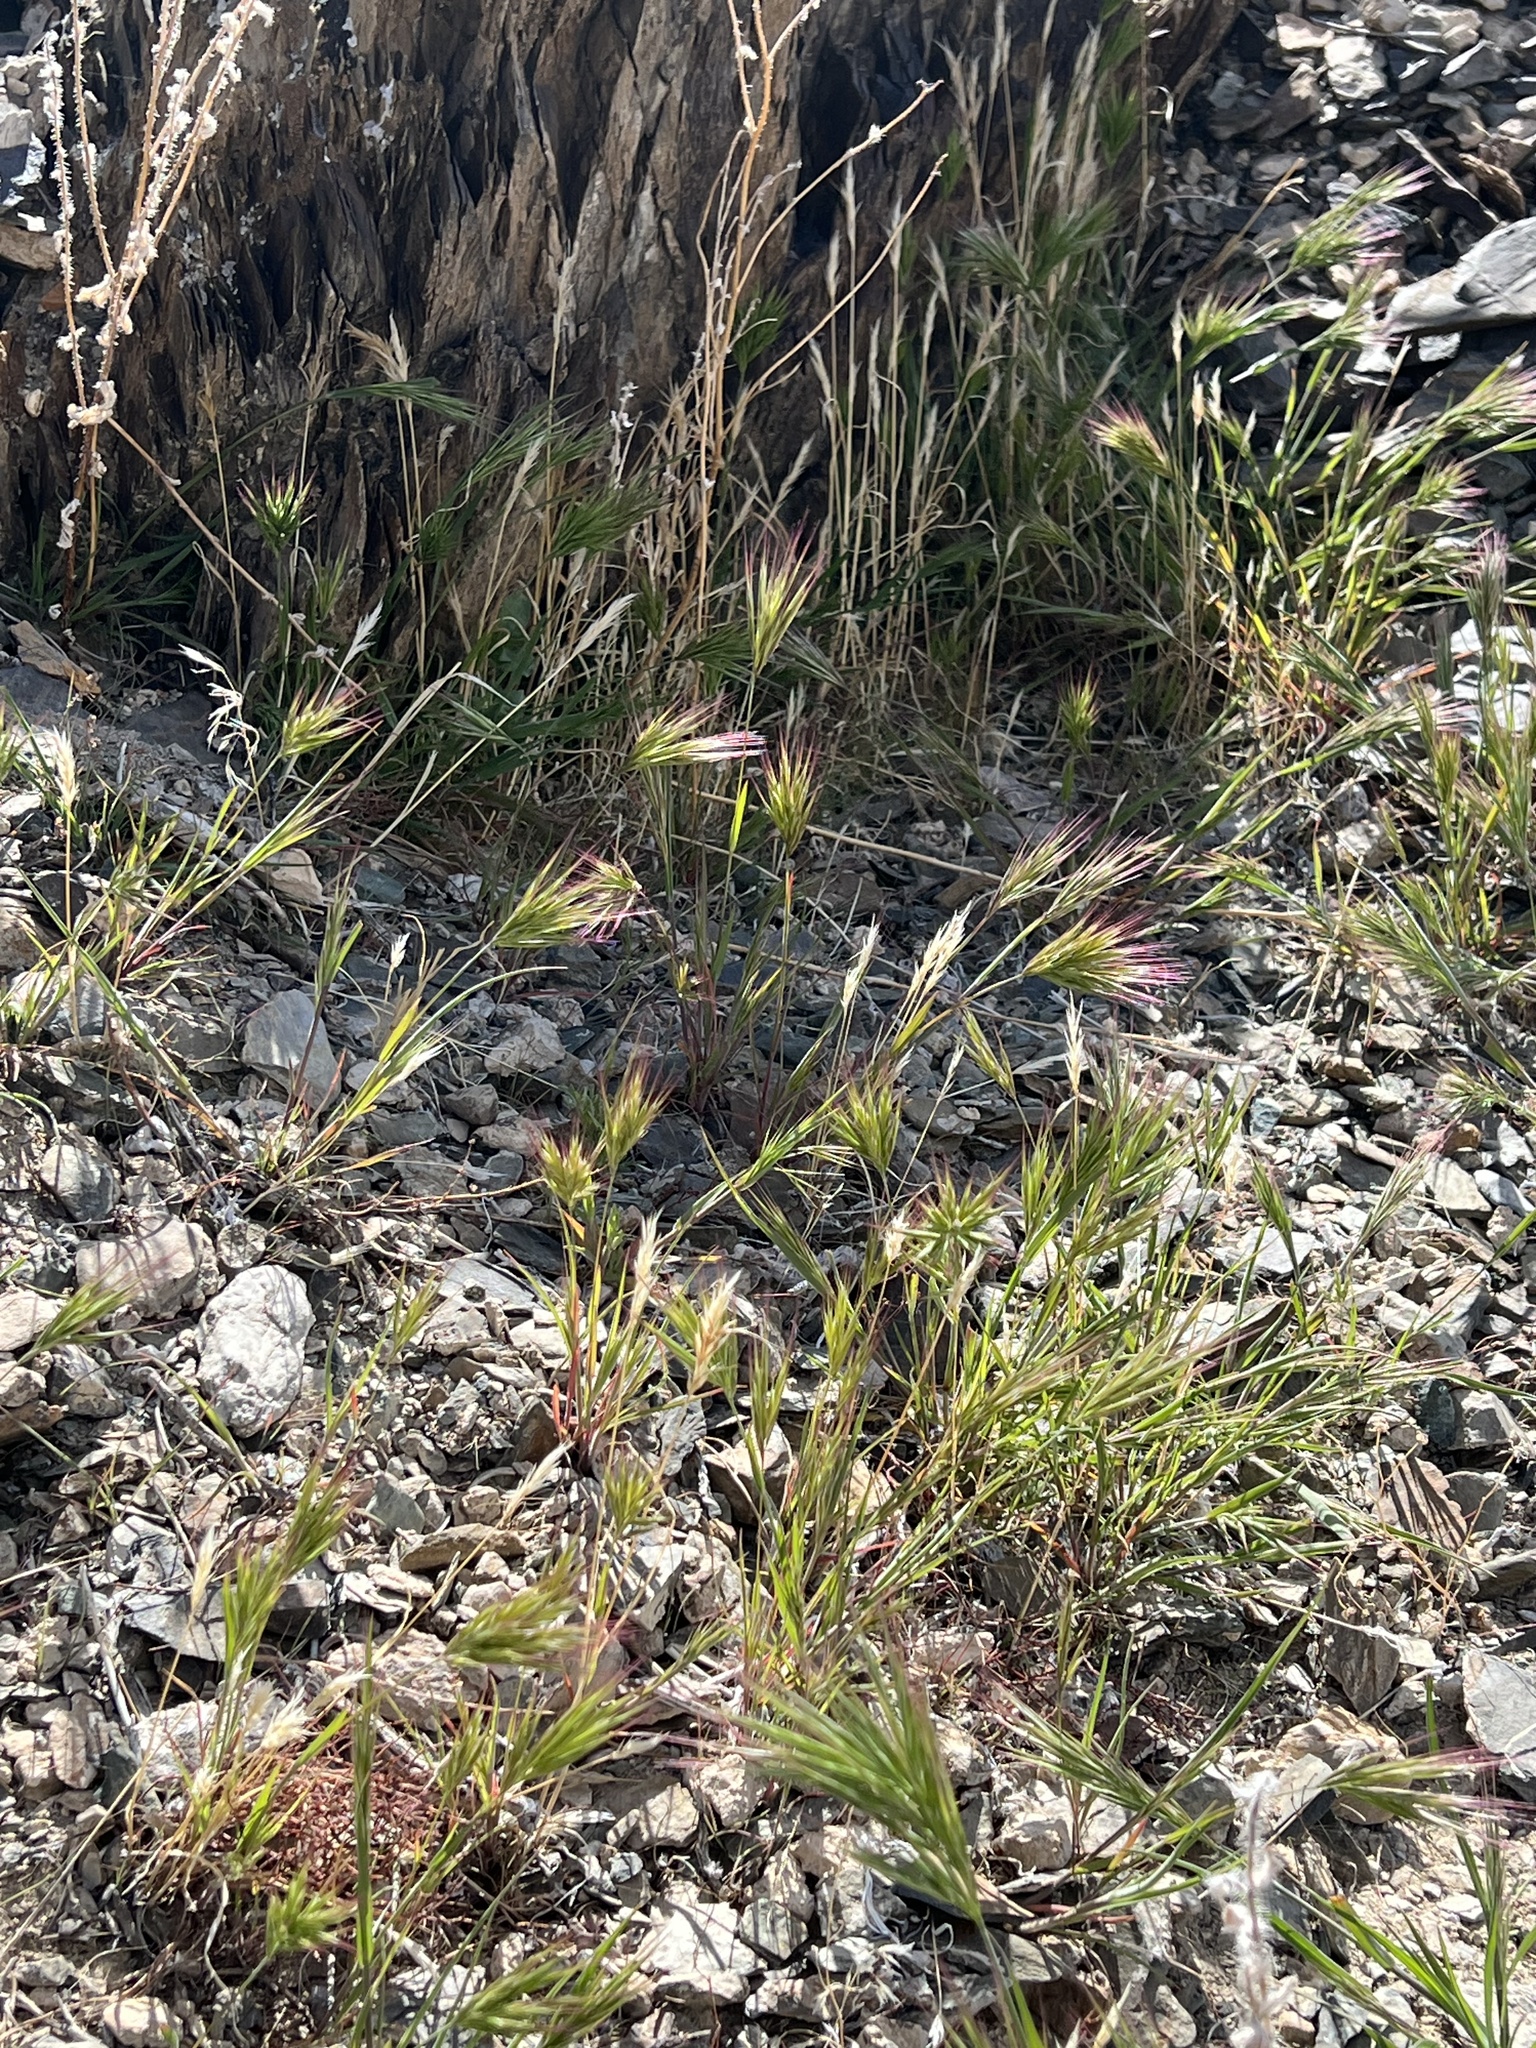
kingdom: Plantae
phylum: Tracheophyta
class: Liliopsida
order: Poales
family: Poaceae
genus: Bromus
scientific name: Bromus rubens
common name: Red brome
